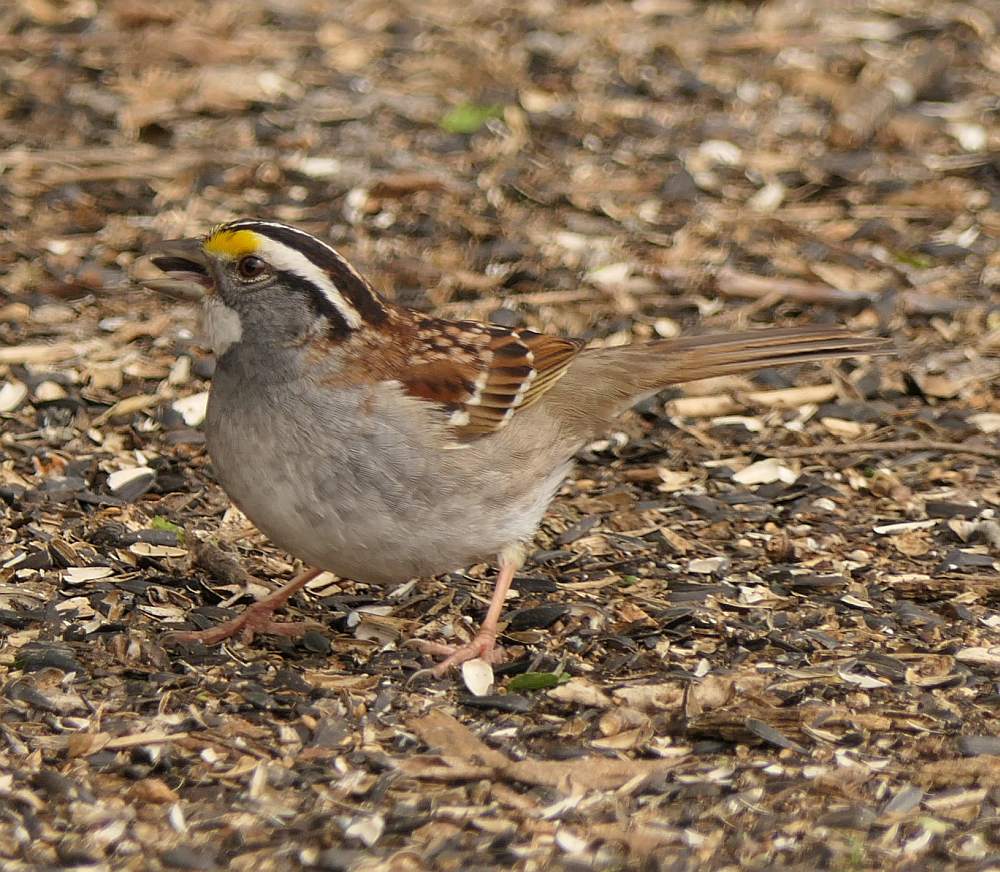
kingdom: Animalia
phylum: Chordata
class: Aves
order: Passeriformes
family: Passerellidae
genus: Zonotrichia
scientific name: Zonotrichia albicollis
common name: White-throated sparrow
